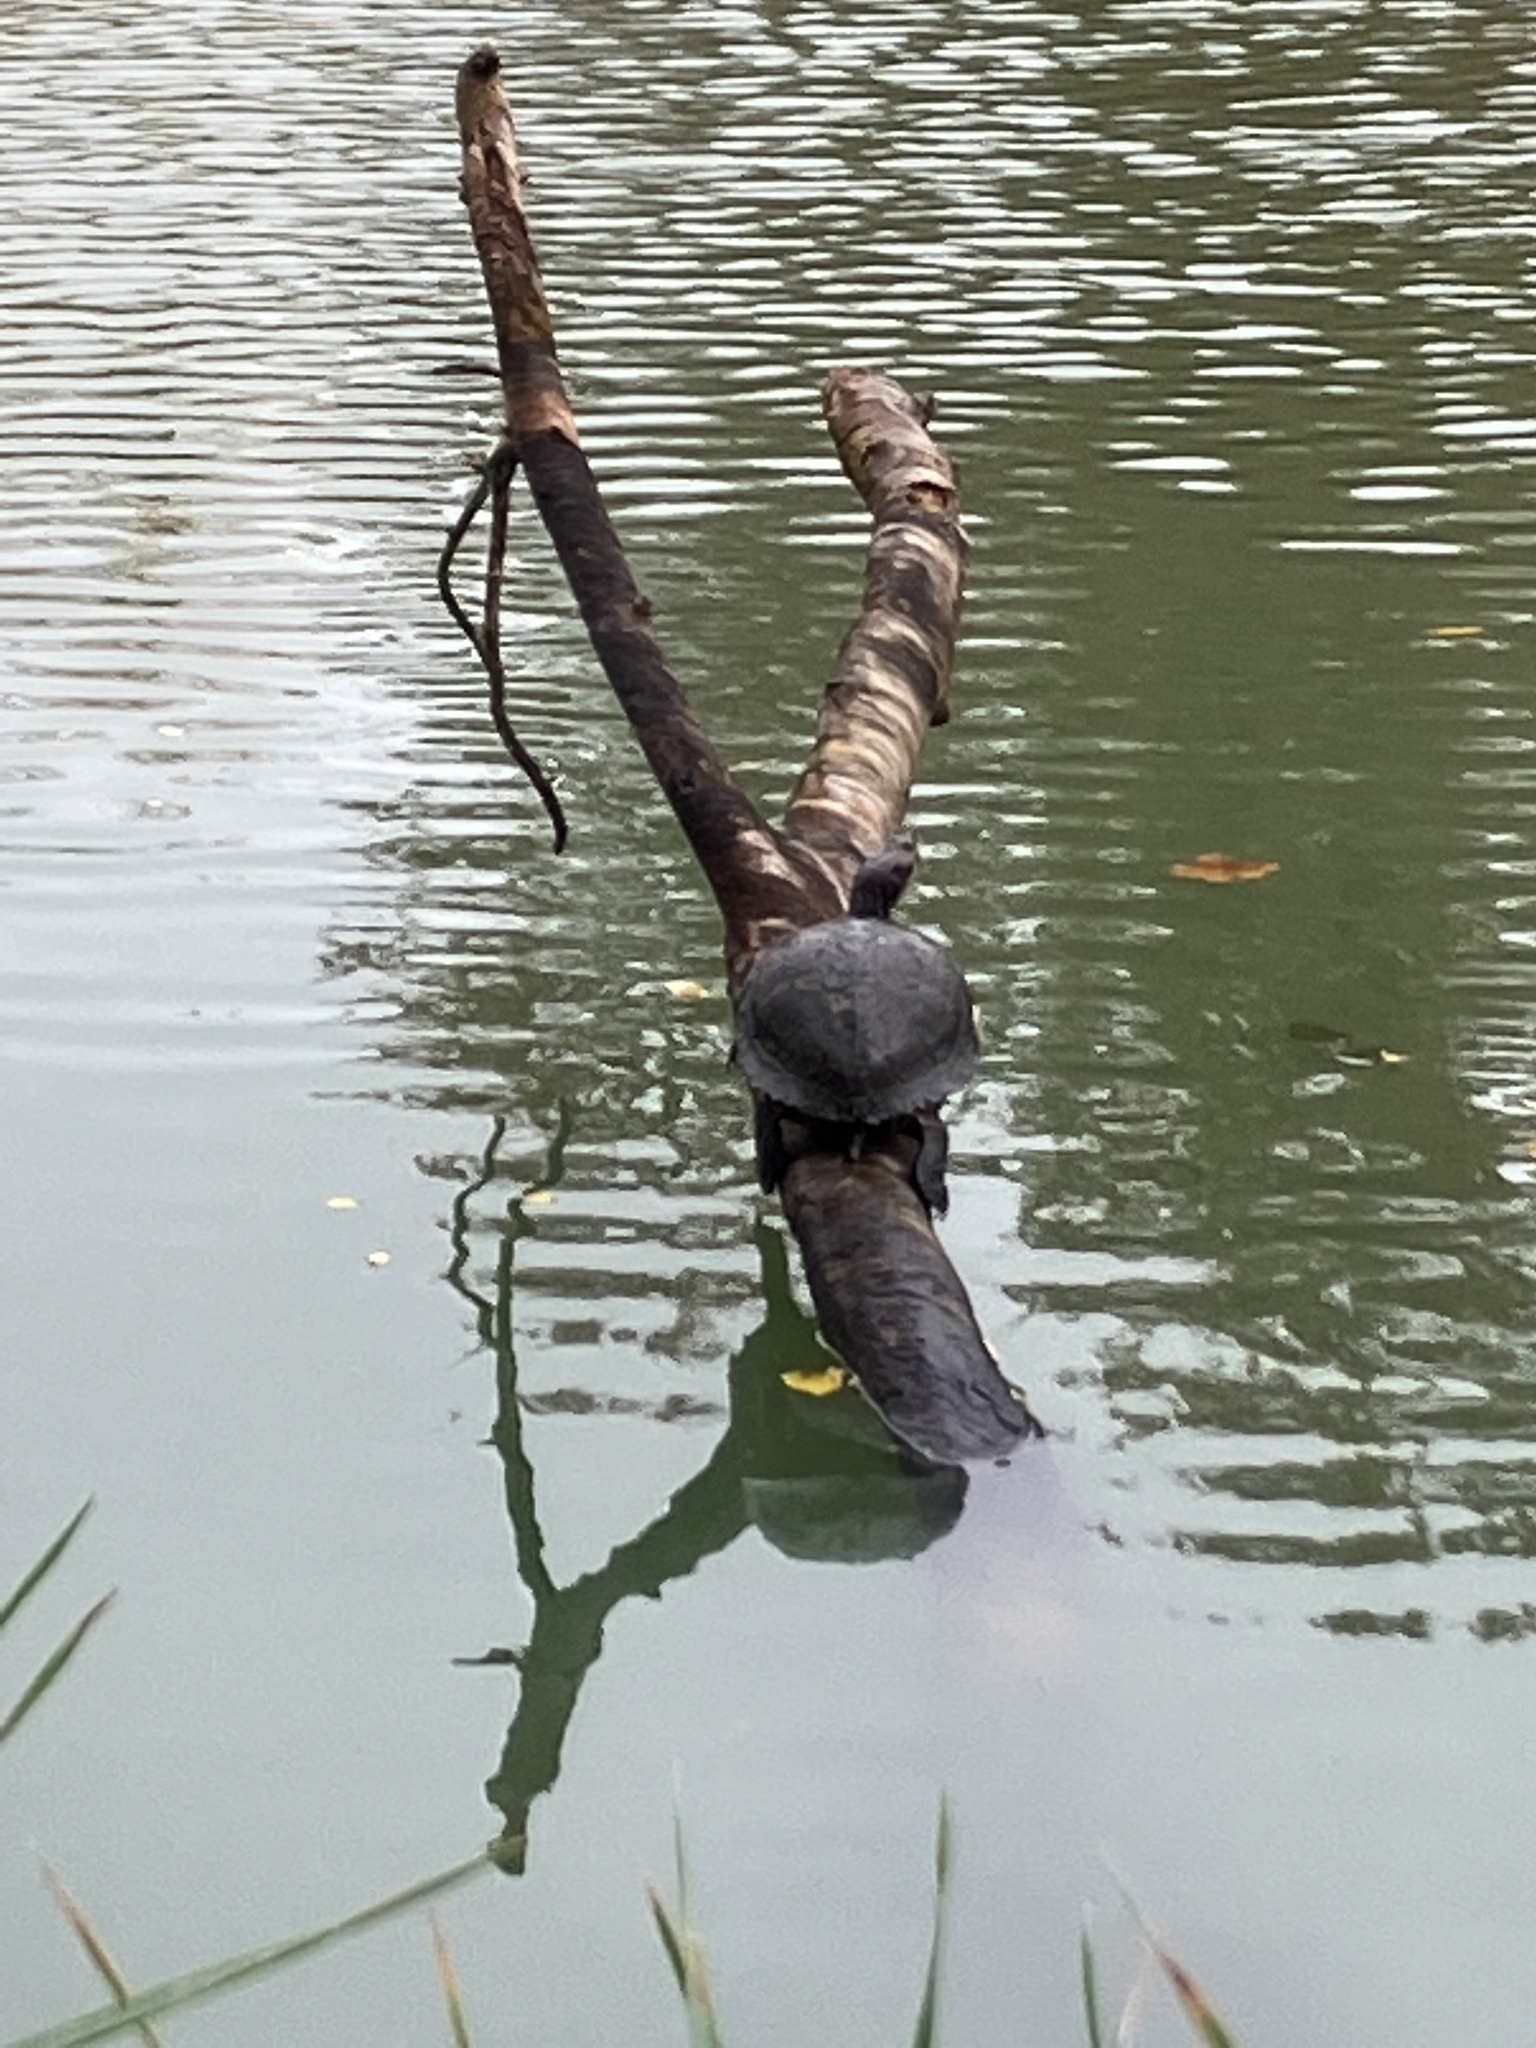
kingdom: Animalia
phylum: Chordata
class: Testudines
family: Emydidae
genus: Trachemys
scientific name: Trachemys scripta
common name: Slider
